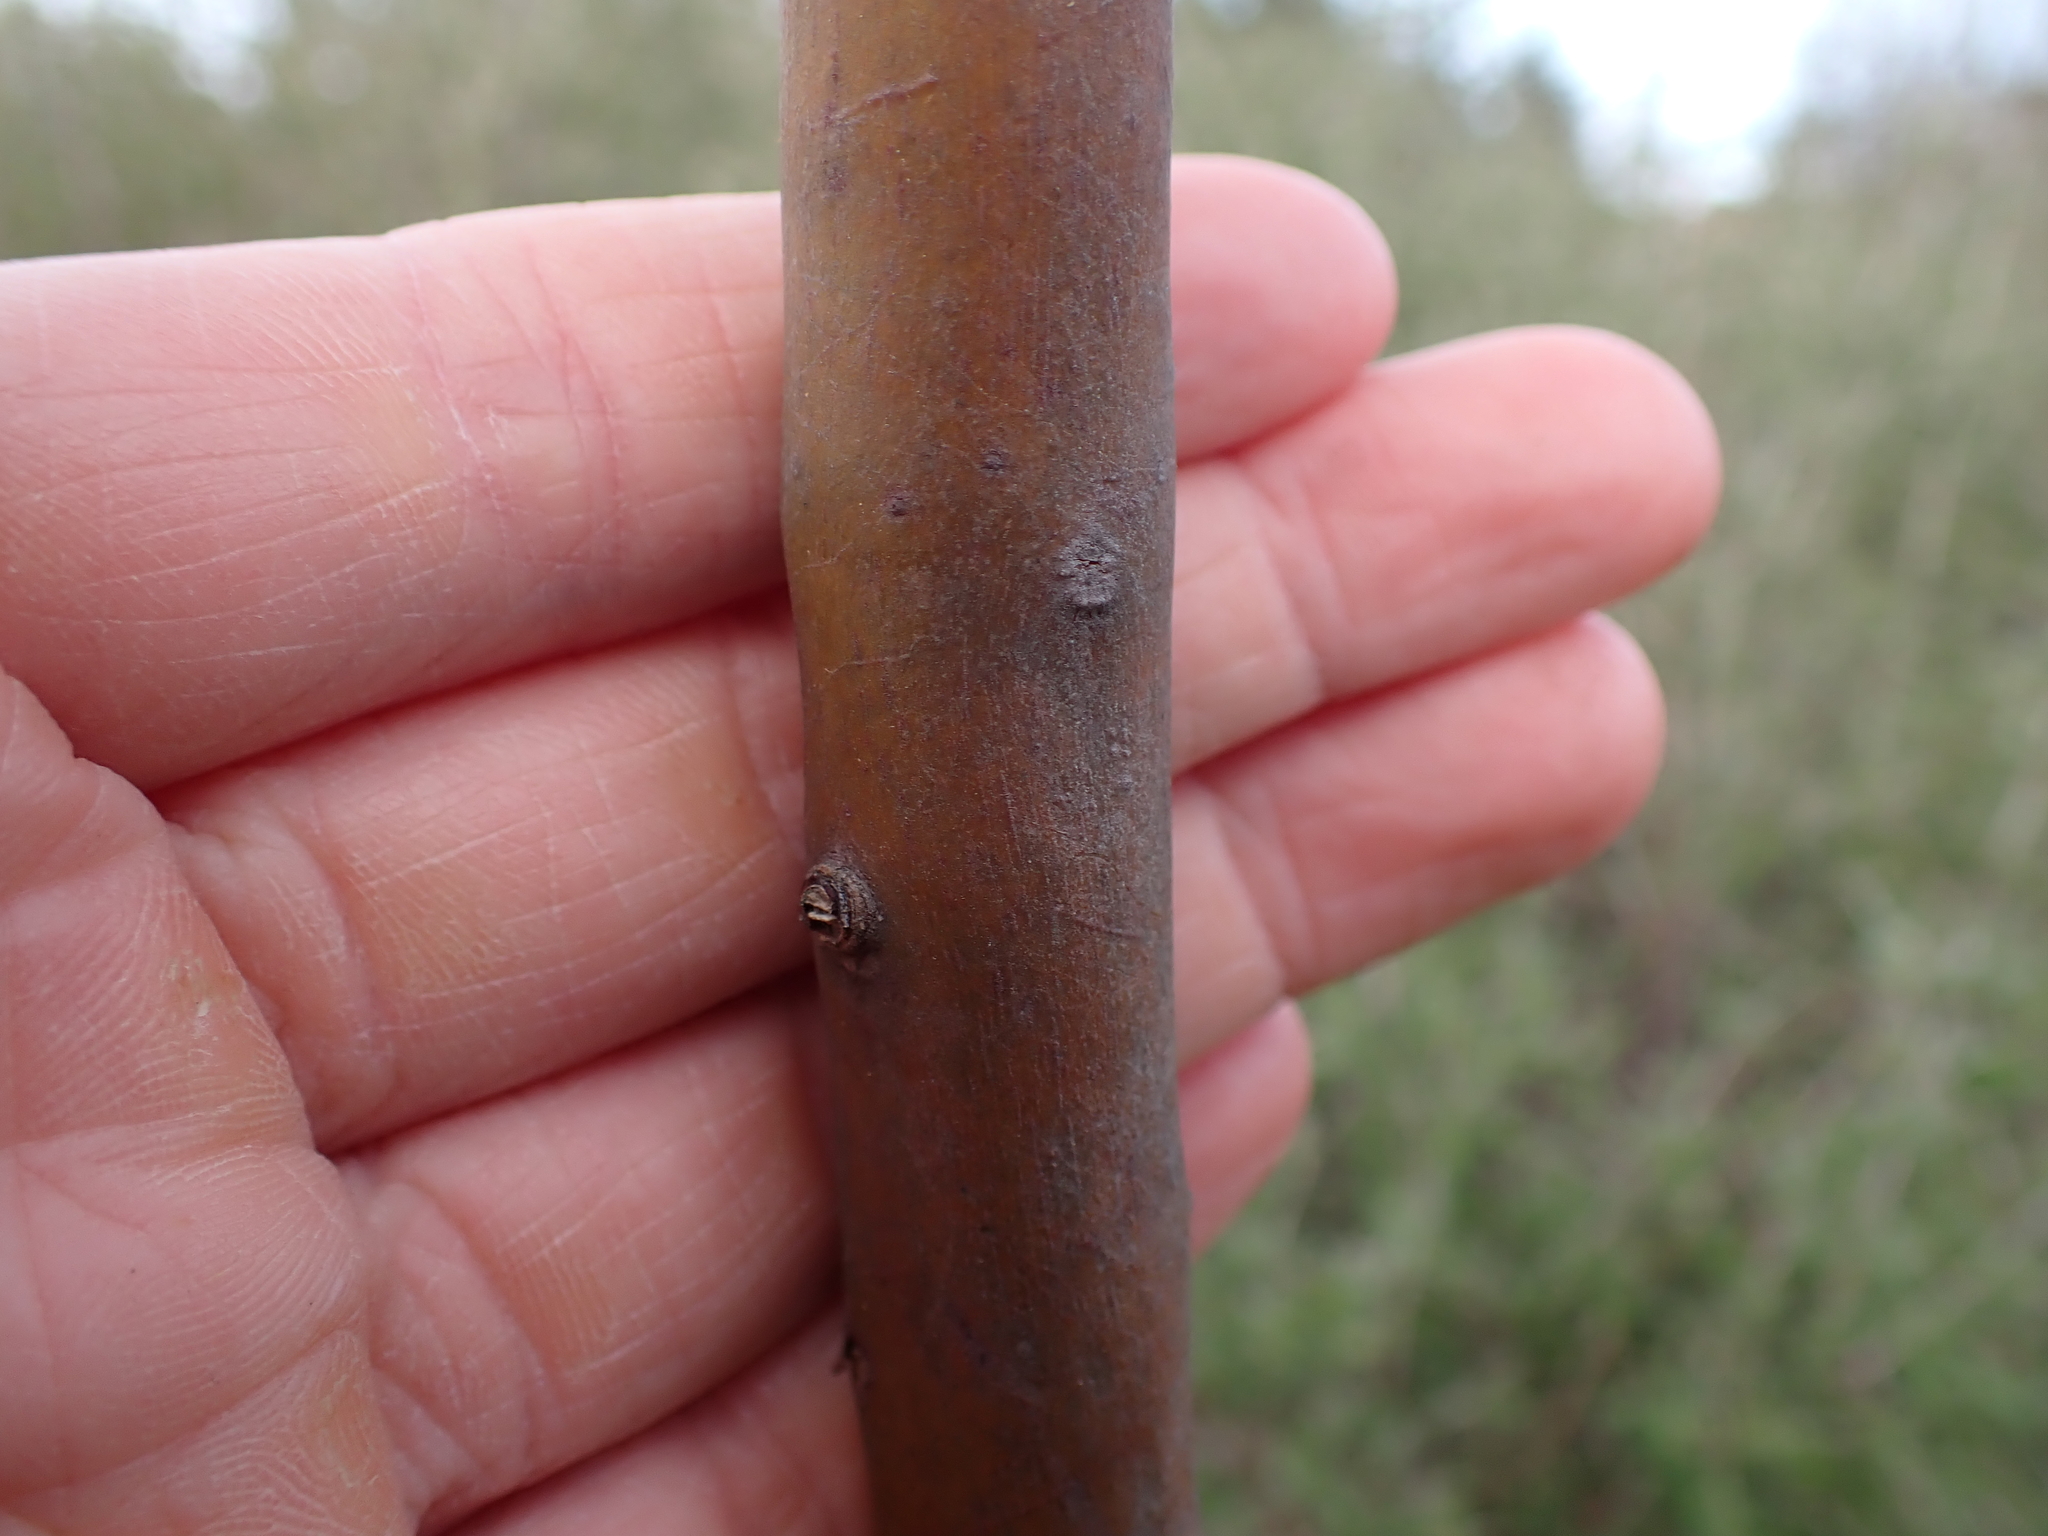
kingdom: Plantae
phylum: Tracheophyta
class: Magnoliopsida
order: Ericales
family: Ericaceae
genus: Arbutus
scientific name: Arbutus menziesii
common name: Pacific madrone
